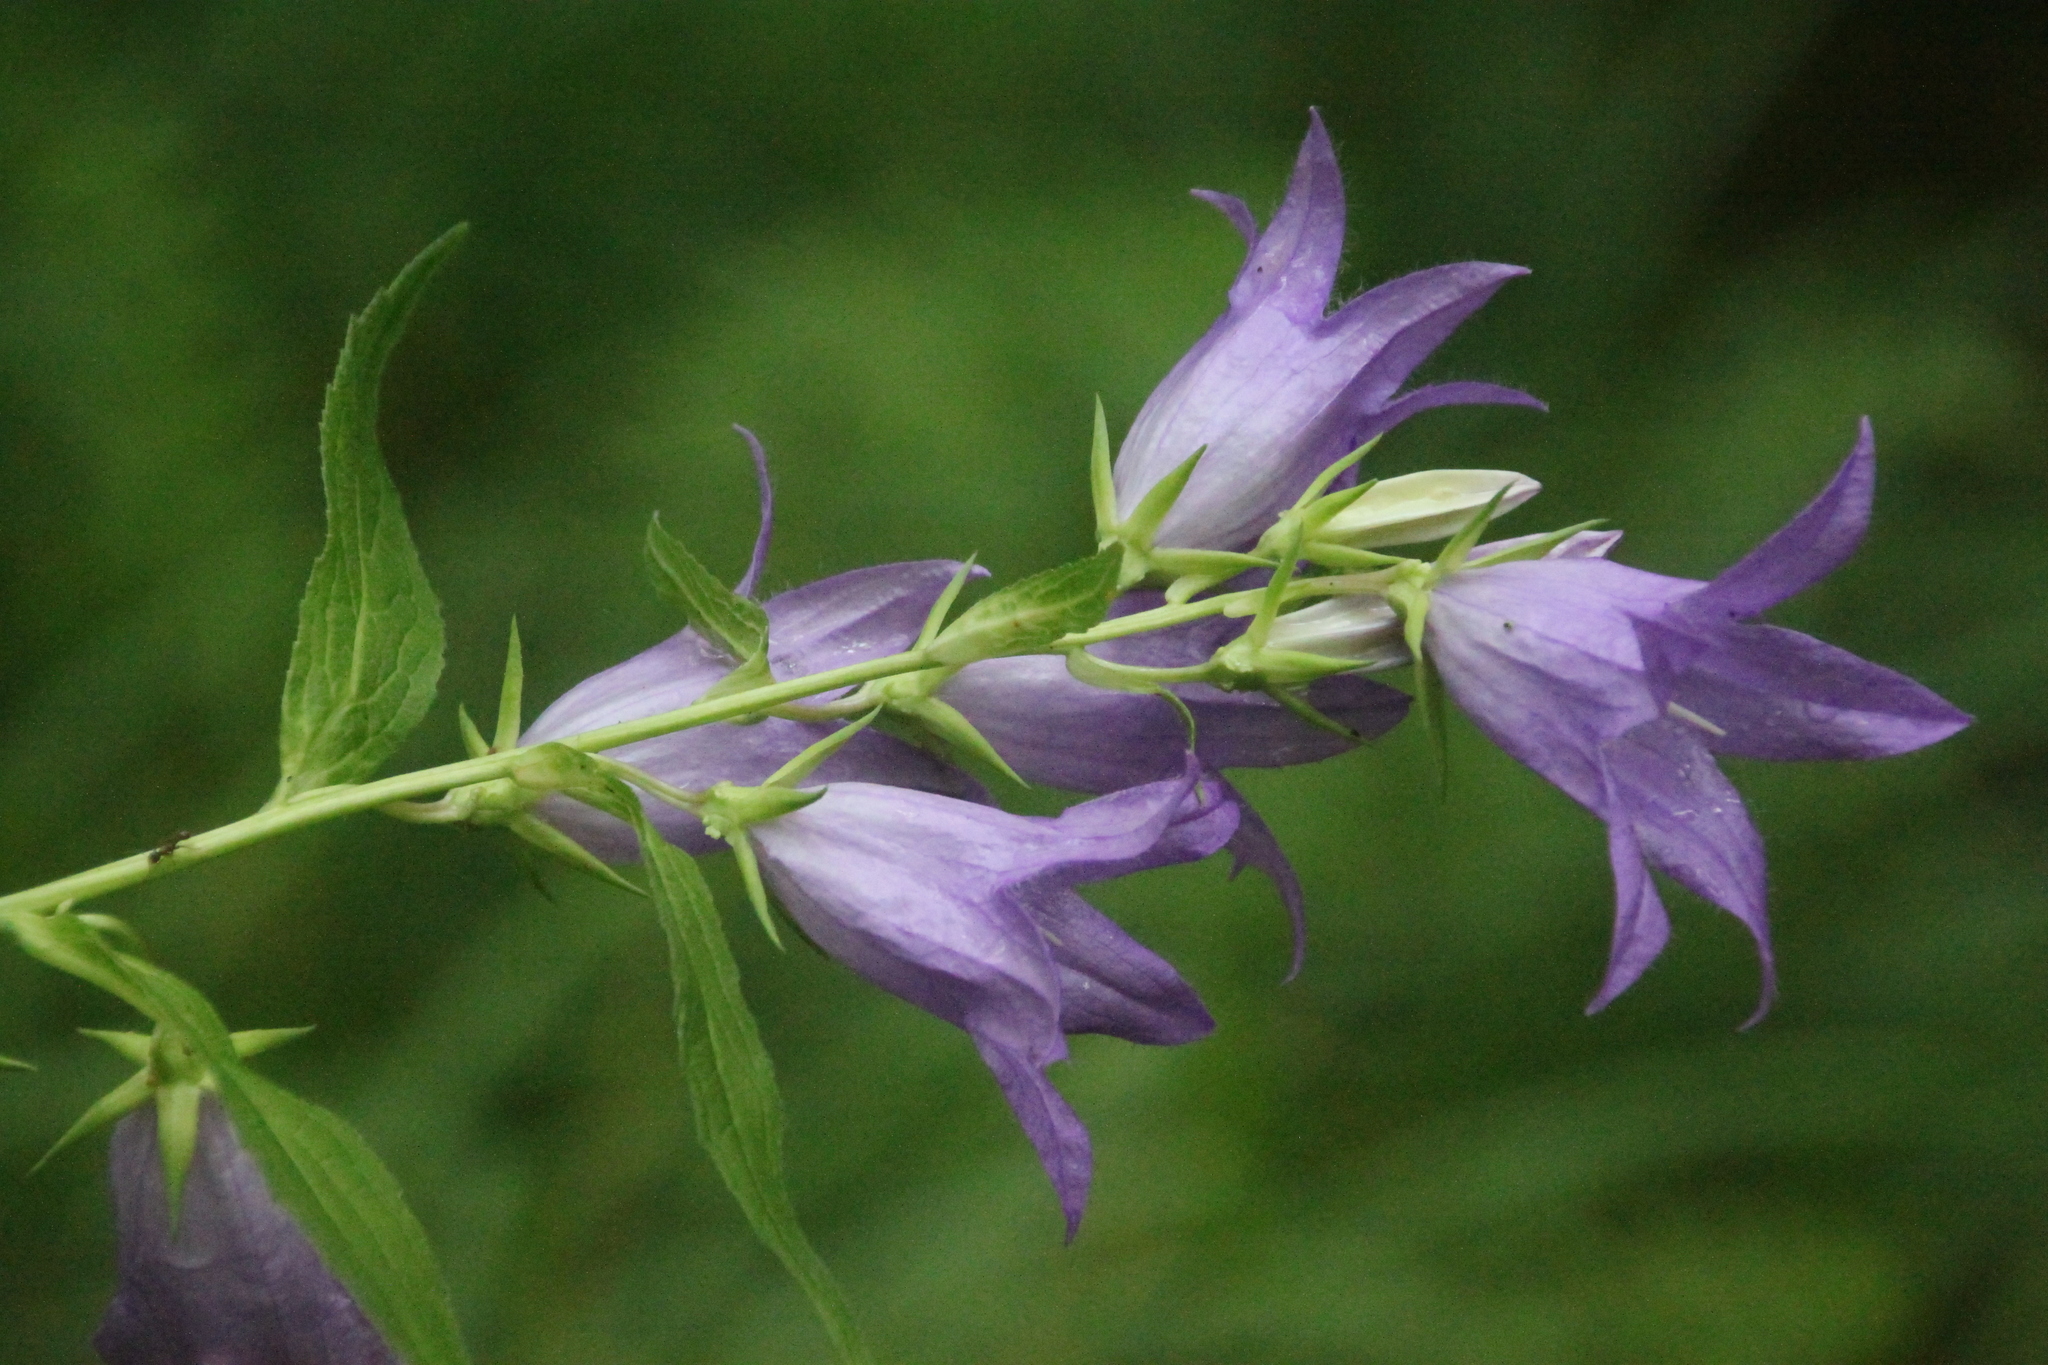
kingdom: Plantae
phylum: Tracheophyta
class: Magnoliopsida
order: Asterales
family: Campanulaceae
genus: Campanula
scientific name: Campanula latifolia
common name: Giant bellflower
